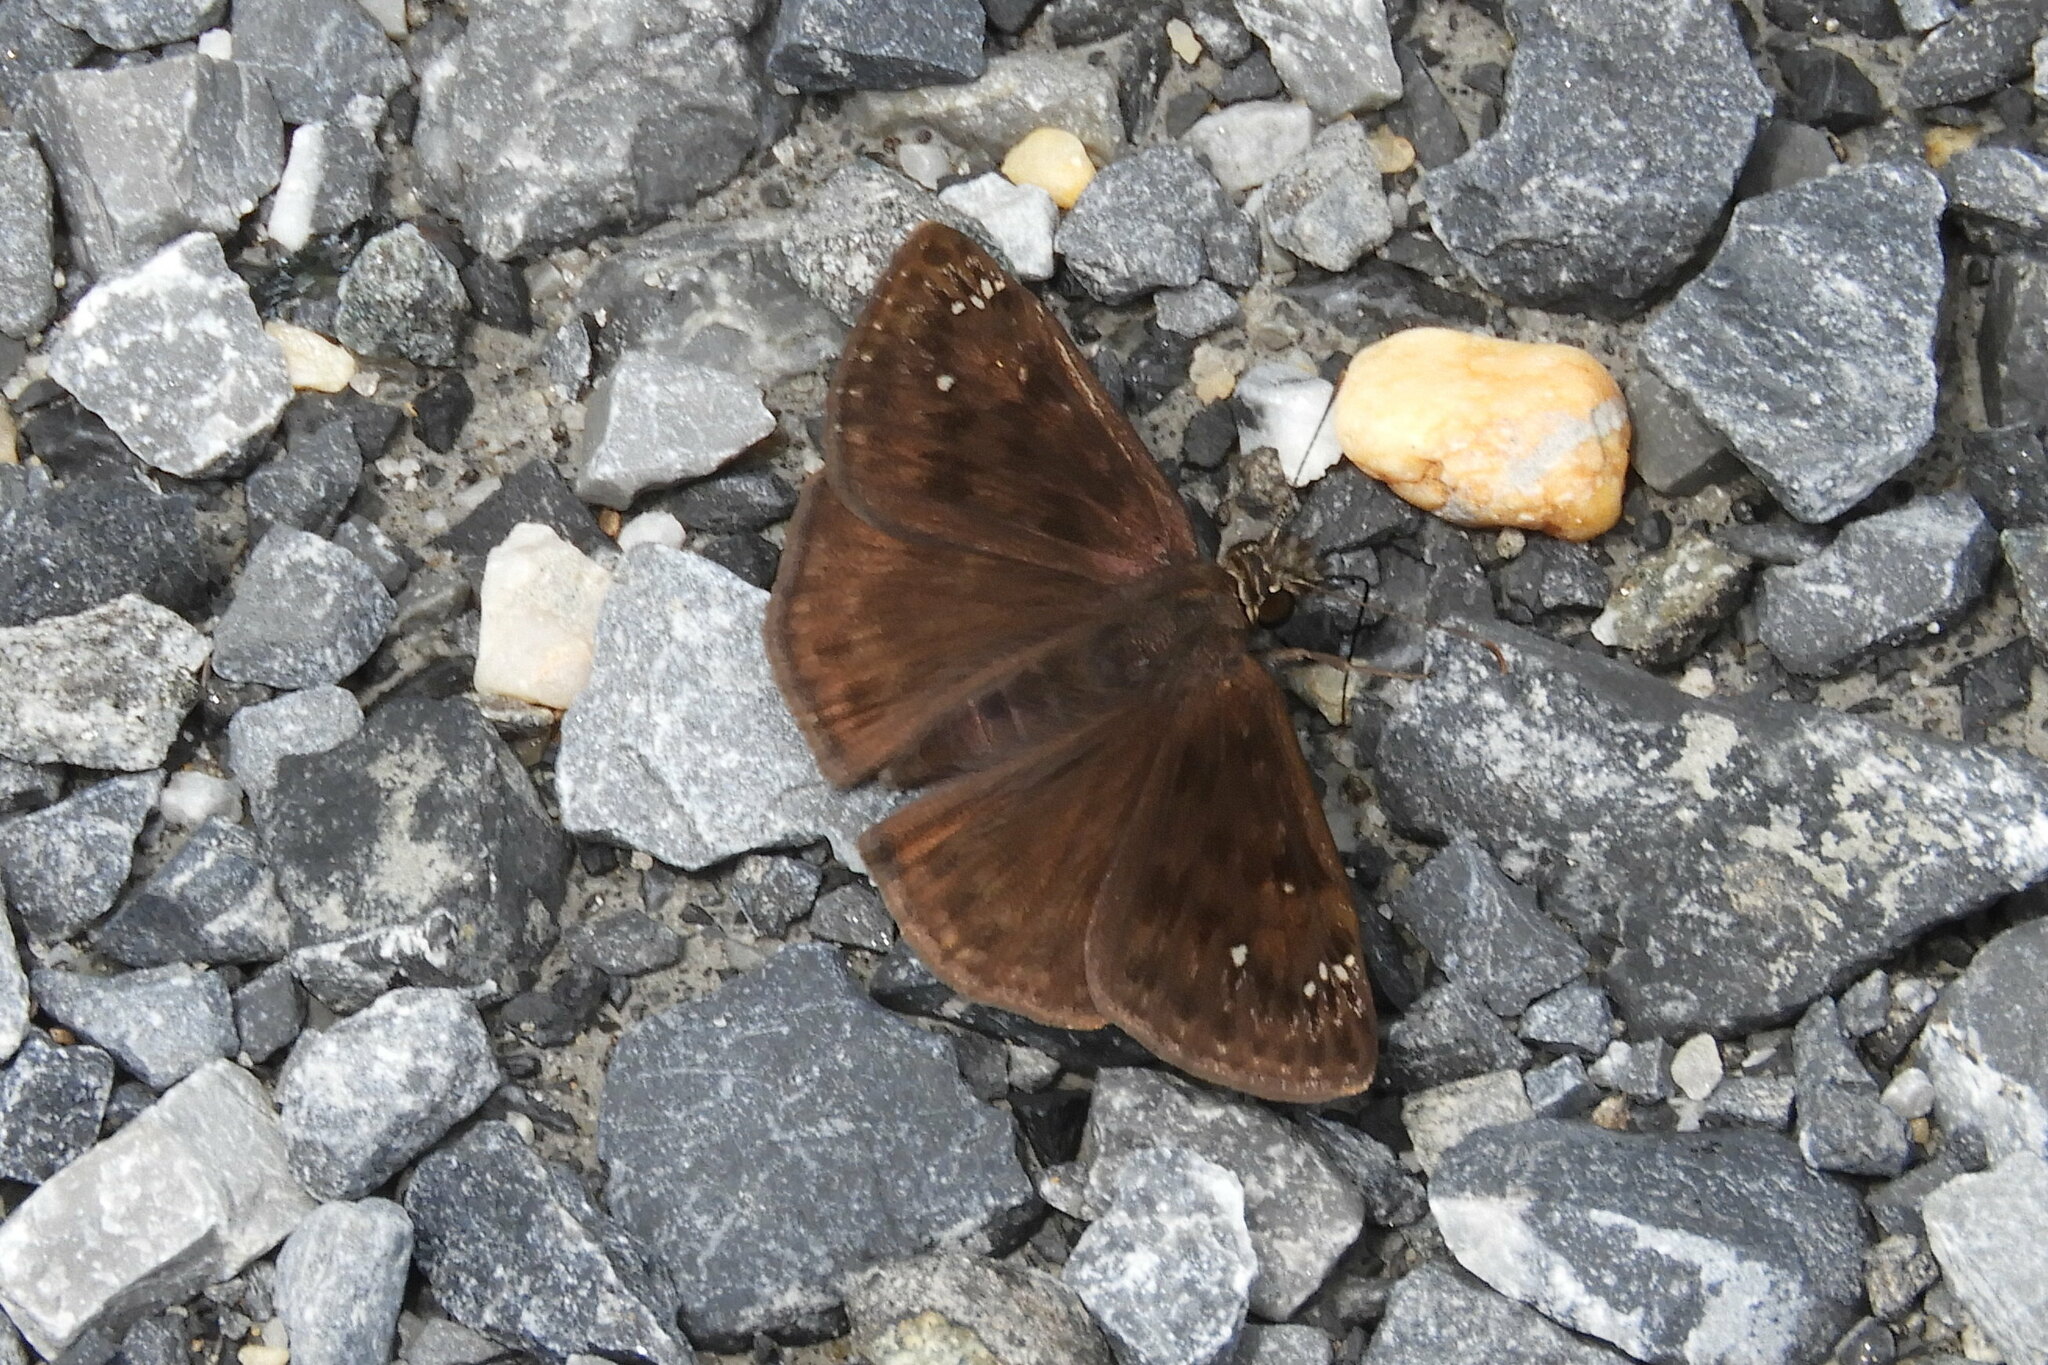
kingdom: Animalia
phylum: Arthropoda
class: Insecta
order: Lepidoptera
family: Hesperiidae
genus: Erynnis
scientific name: Erynnis horatius
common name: Horace's duskywing
